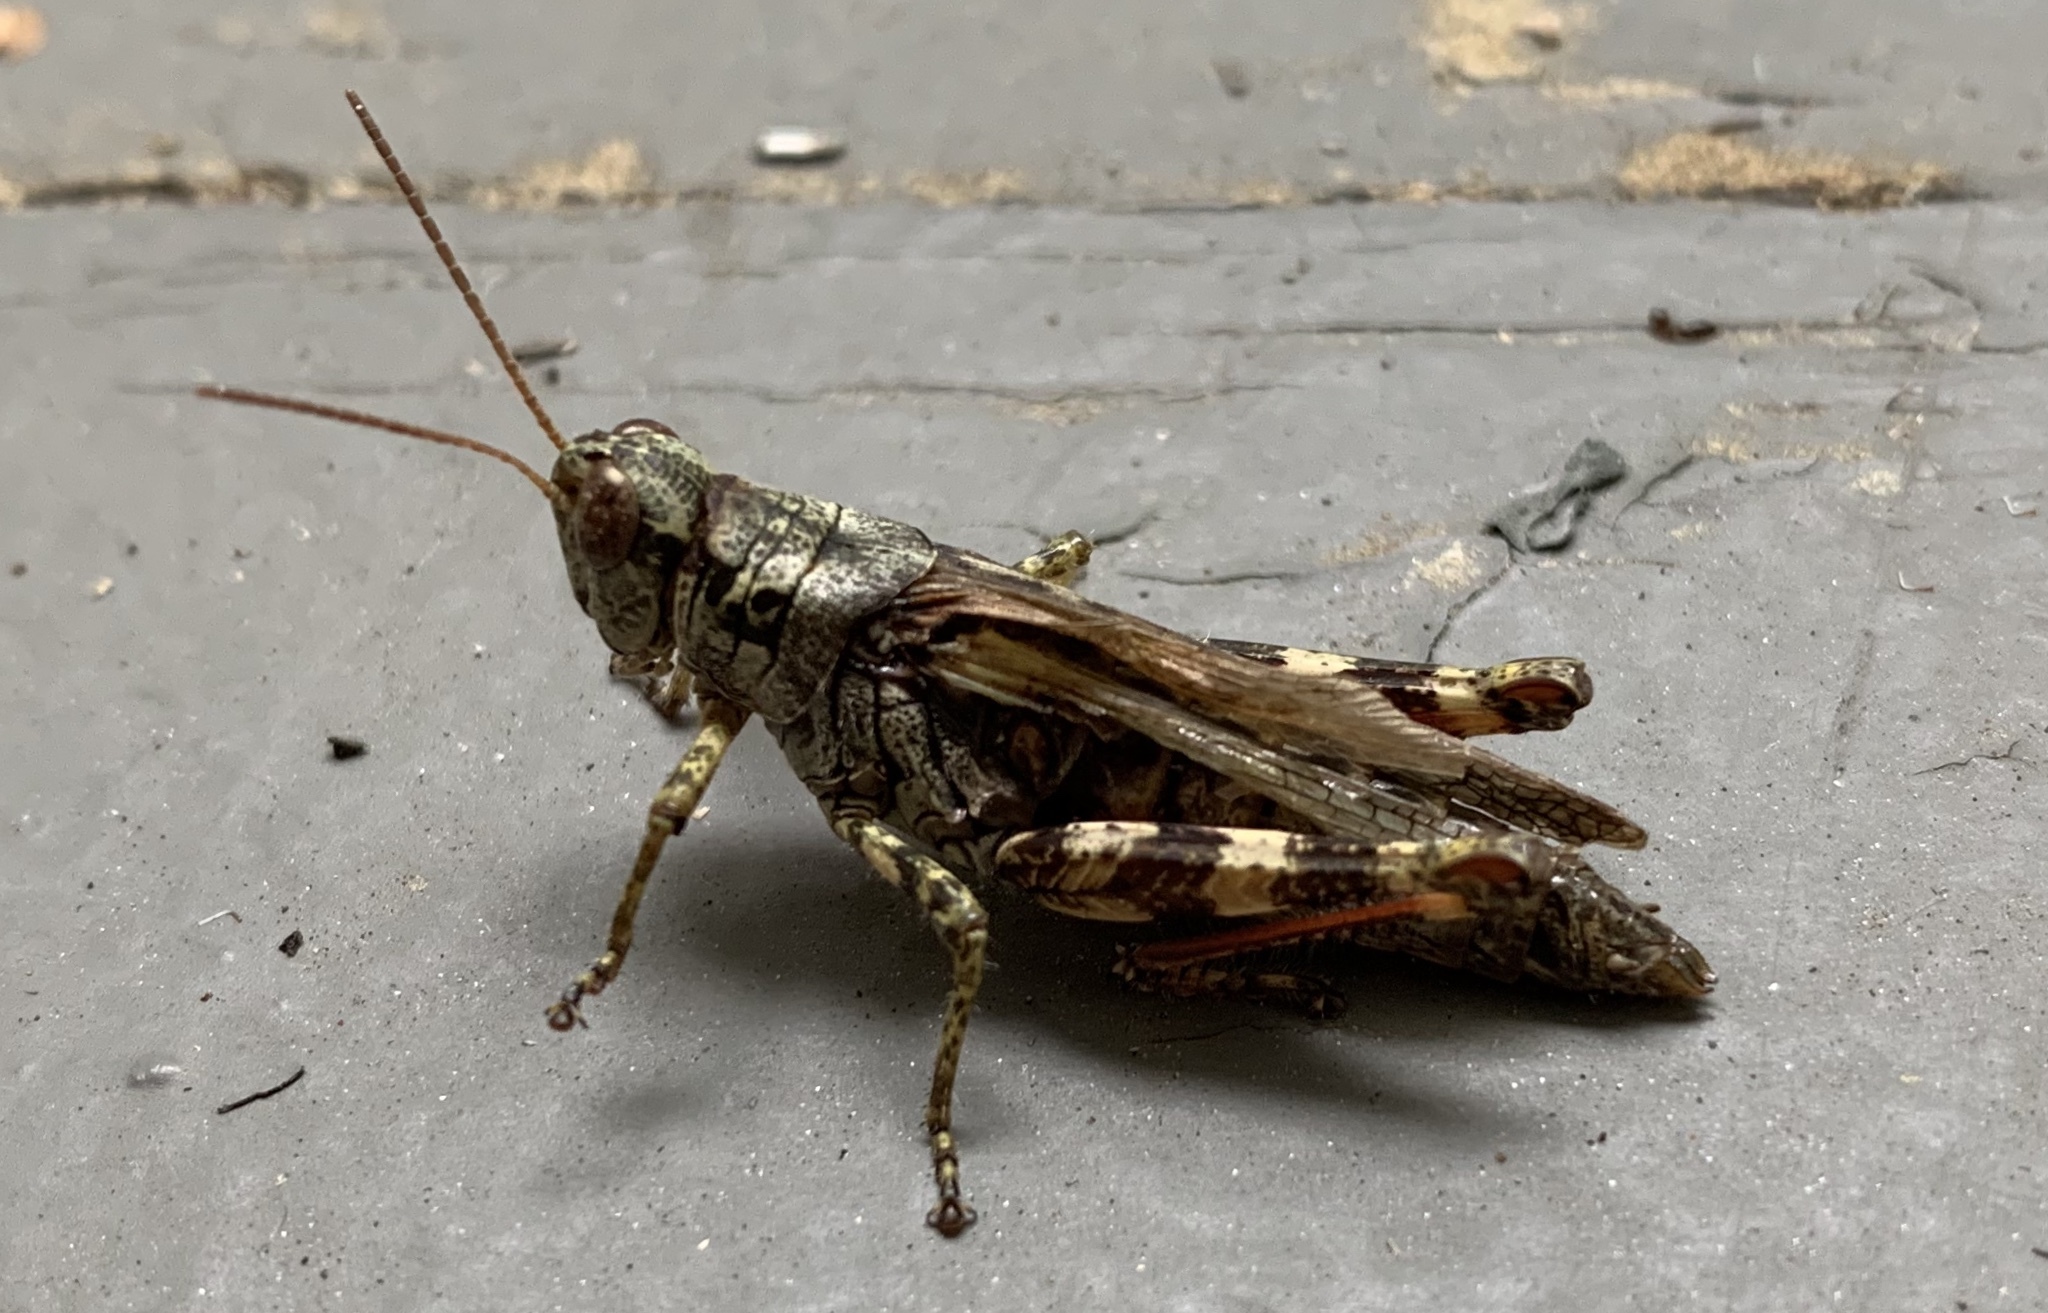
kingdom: Animalia
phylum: Arthropoda
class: Insecta
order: Orthoptera
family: Acrididae
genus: Melanoplus
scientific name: Melanoplus punctulatus
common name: Pine-tree spur-throat grasshopper
